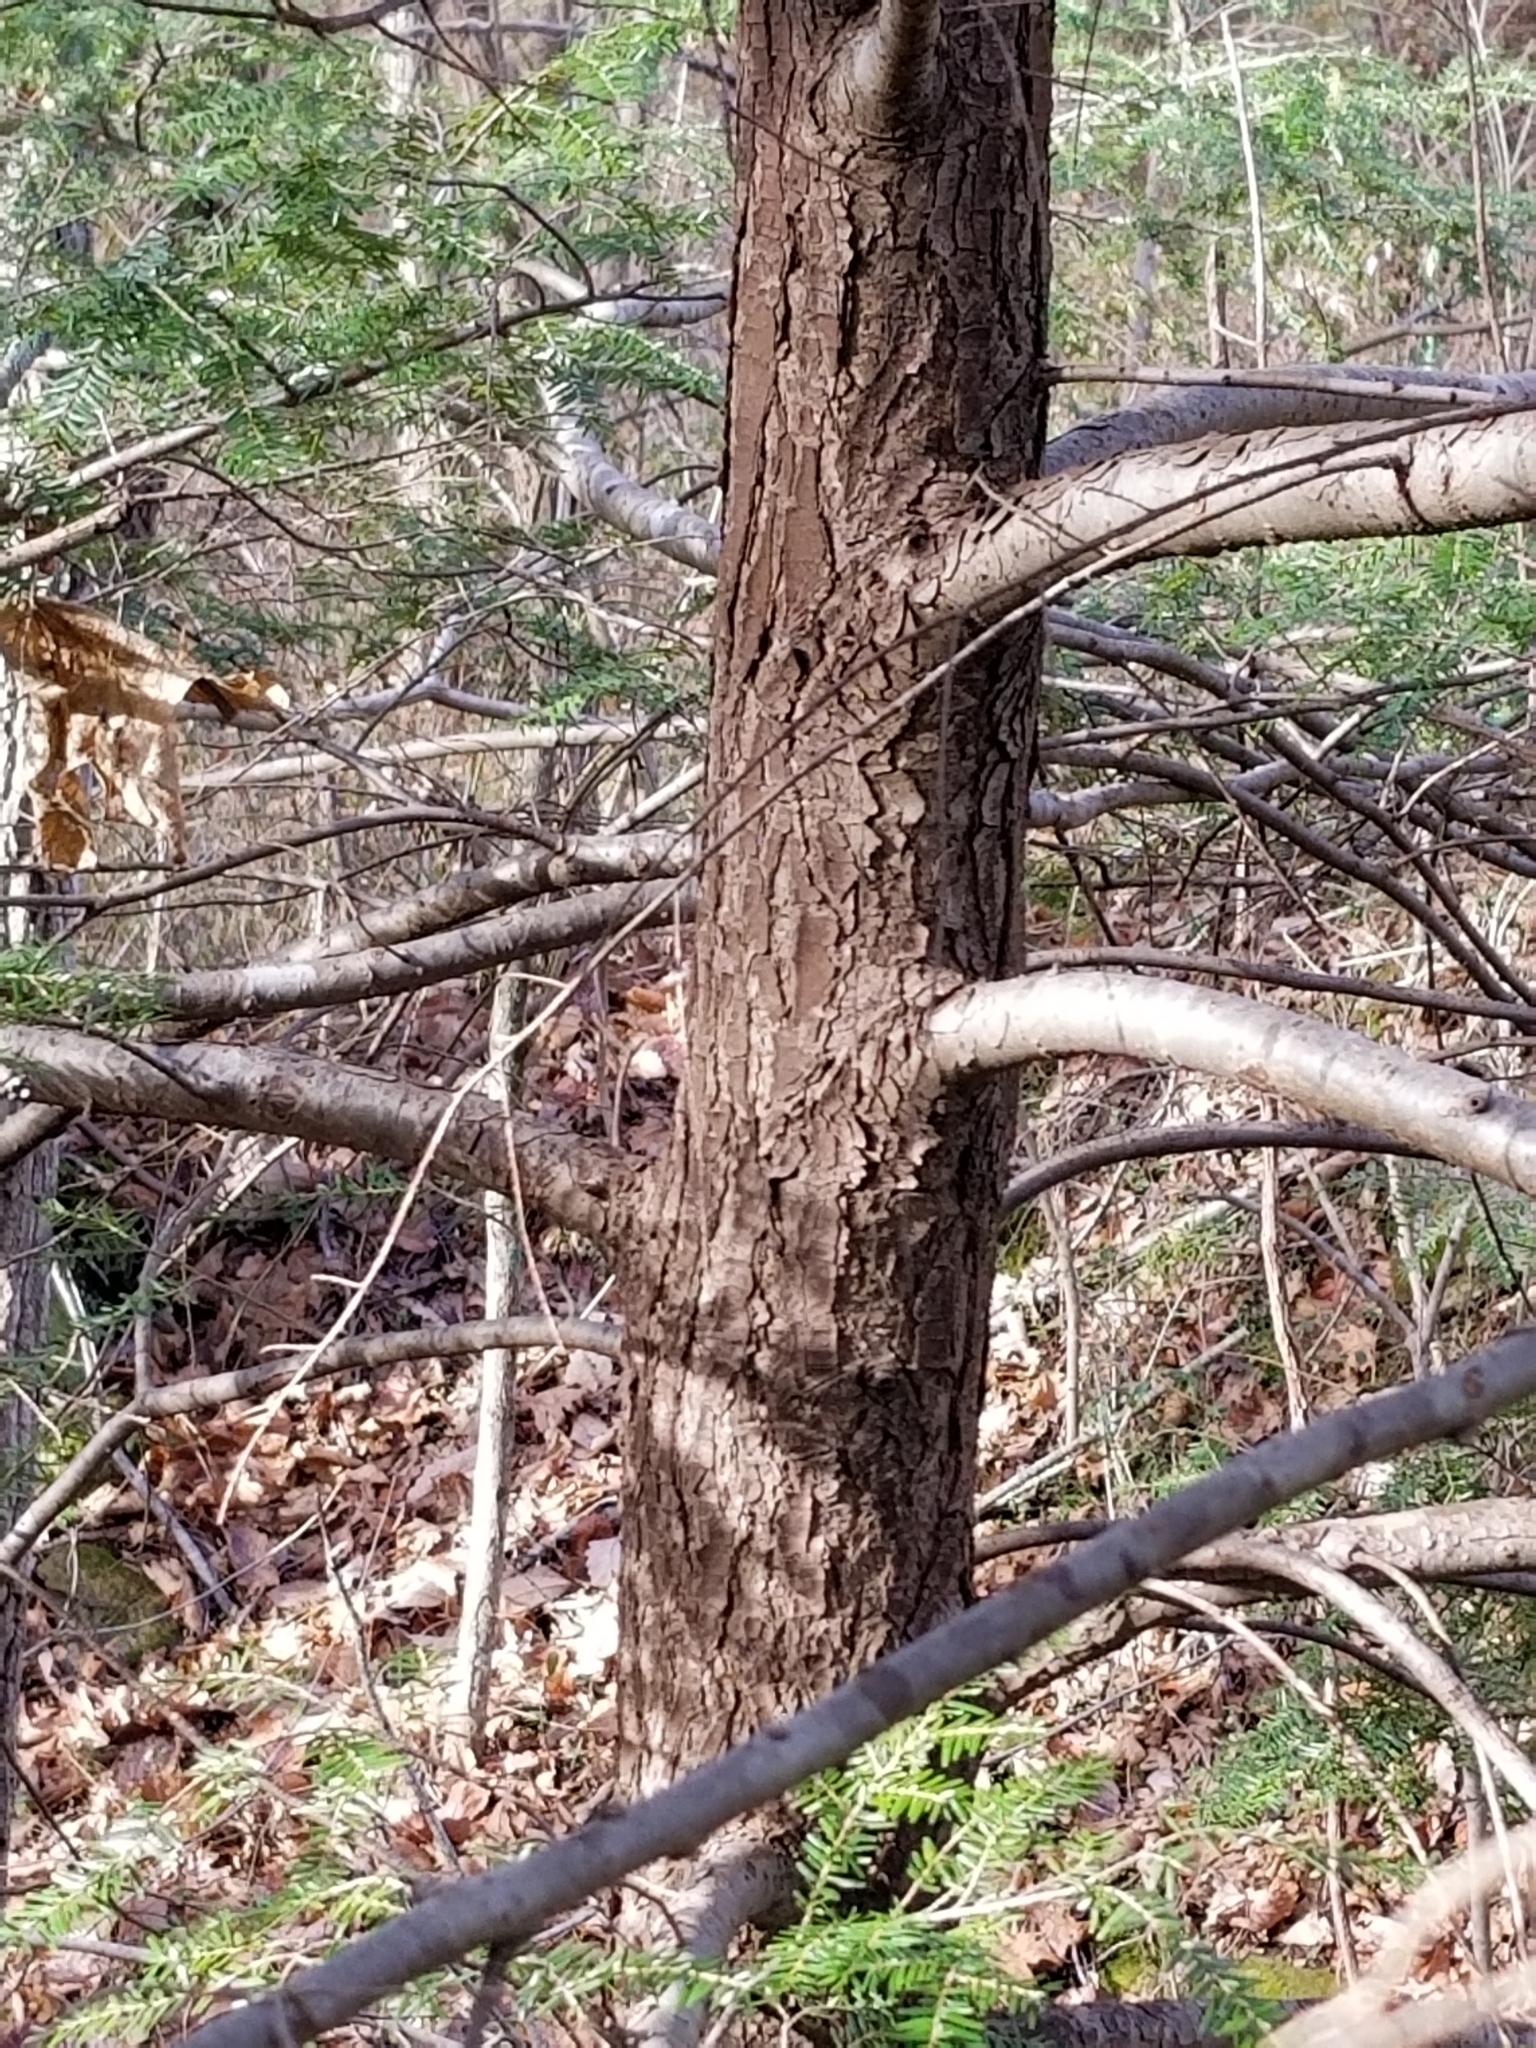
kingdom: Plantae
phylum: Tracheophyta
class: Pinopsida
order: Pinales
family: Pinaceae
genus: Tsuga
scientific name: Tsuga canadensis
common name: Eastern hemlock
